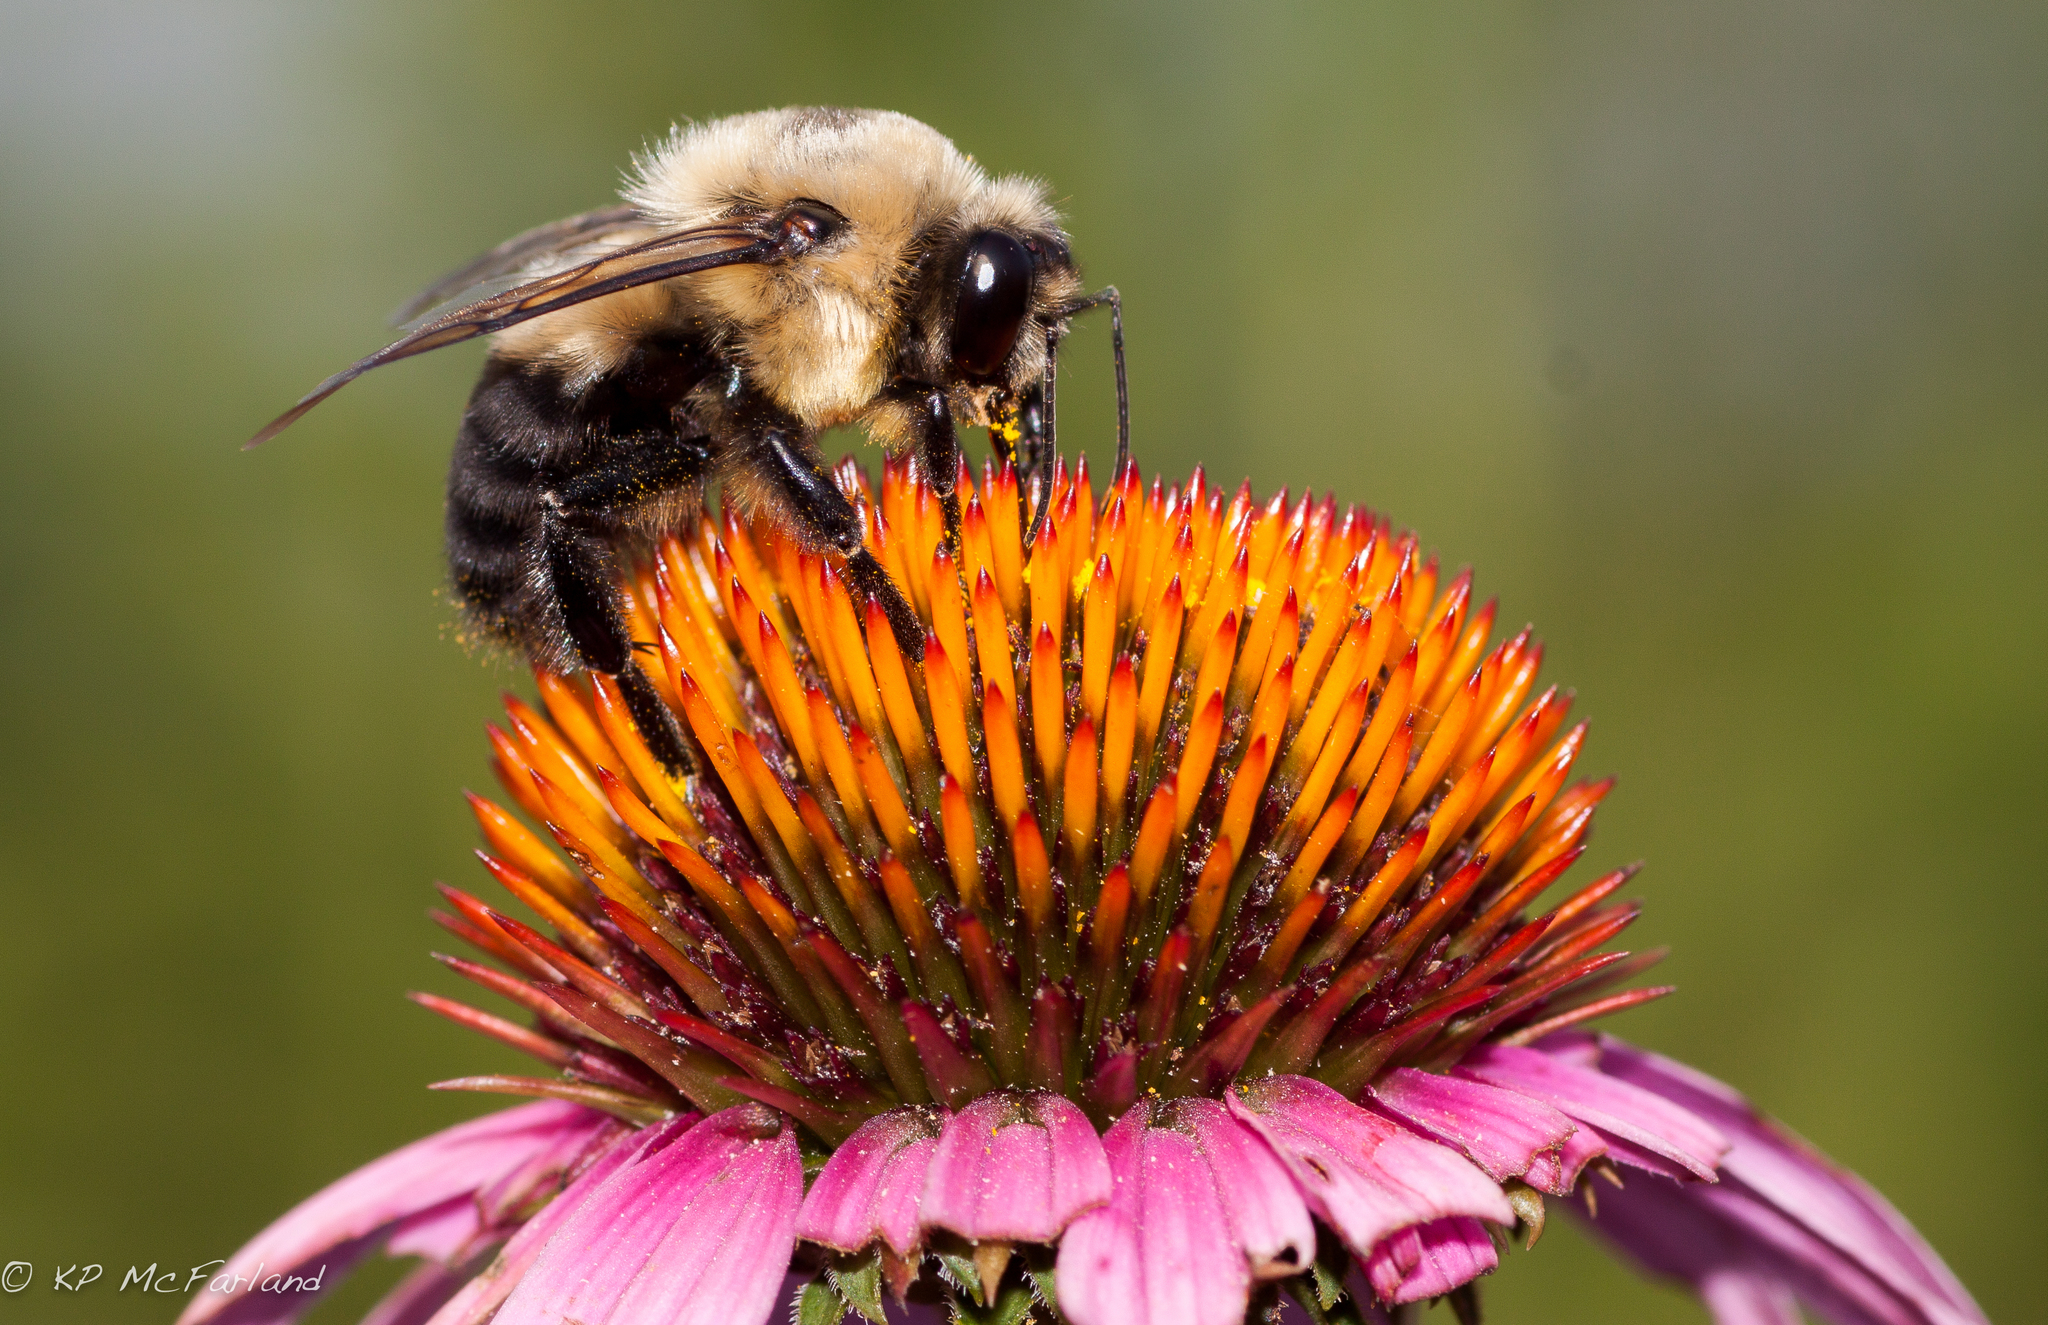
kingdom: Animalia
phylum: Arthropoda
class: Insecta
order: Hymenoptera
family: Apidae
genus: Bombus
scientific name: Bombus griseocollis
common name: Brown-belted bumble bee
